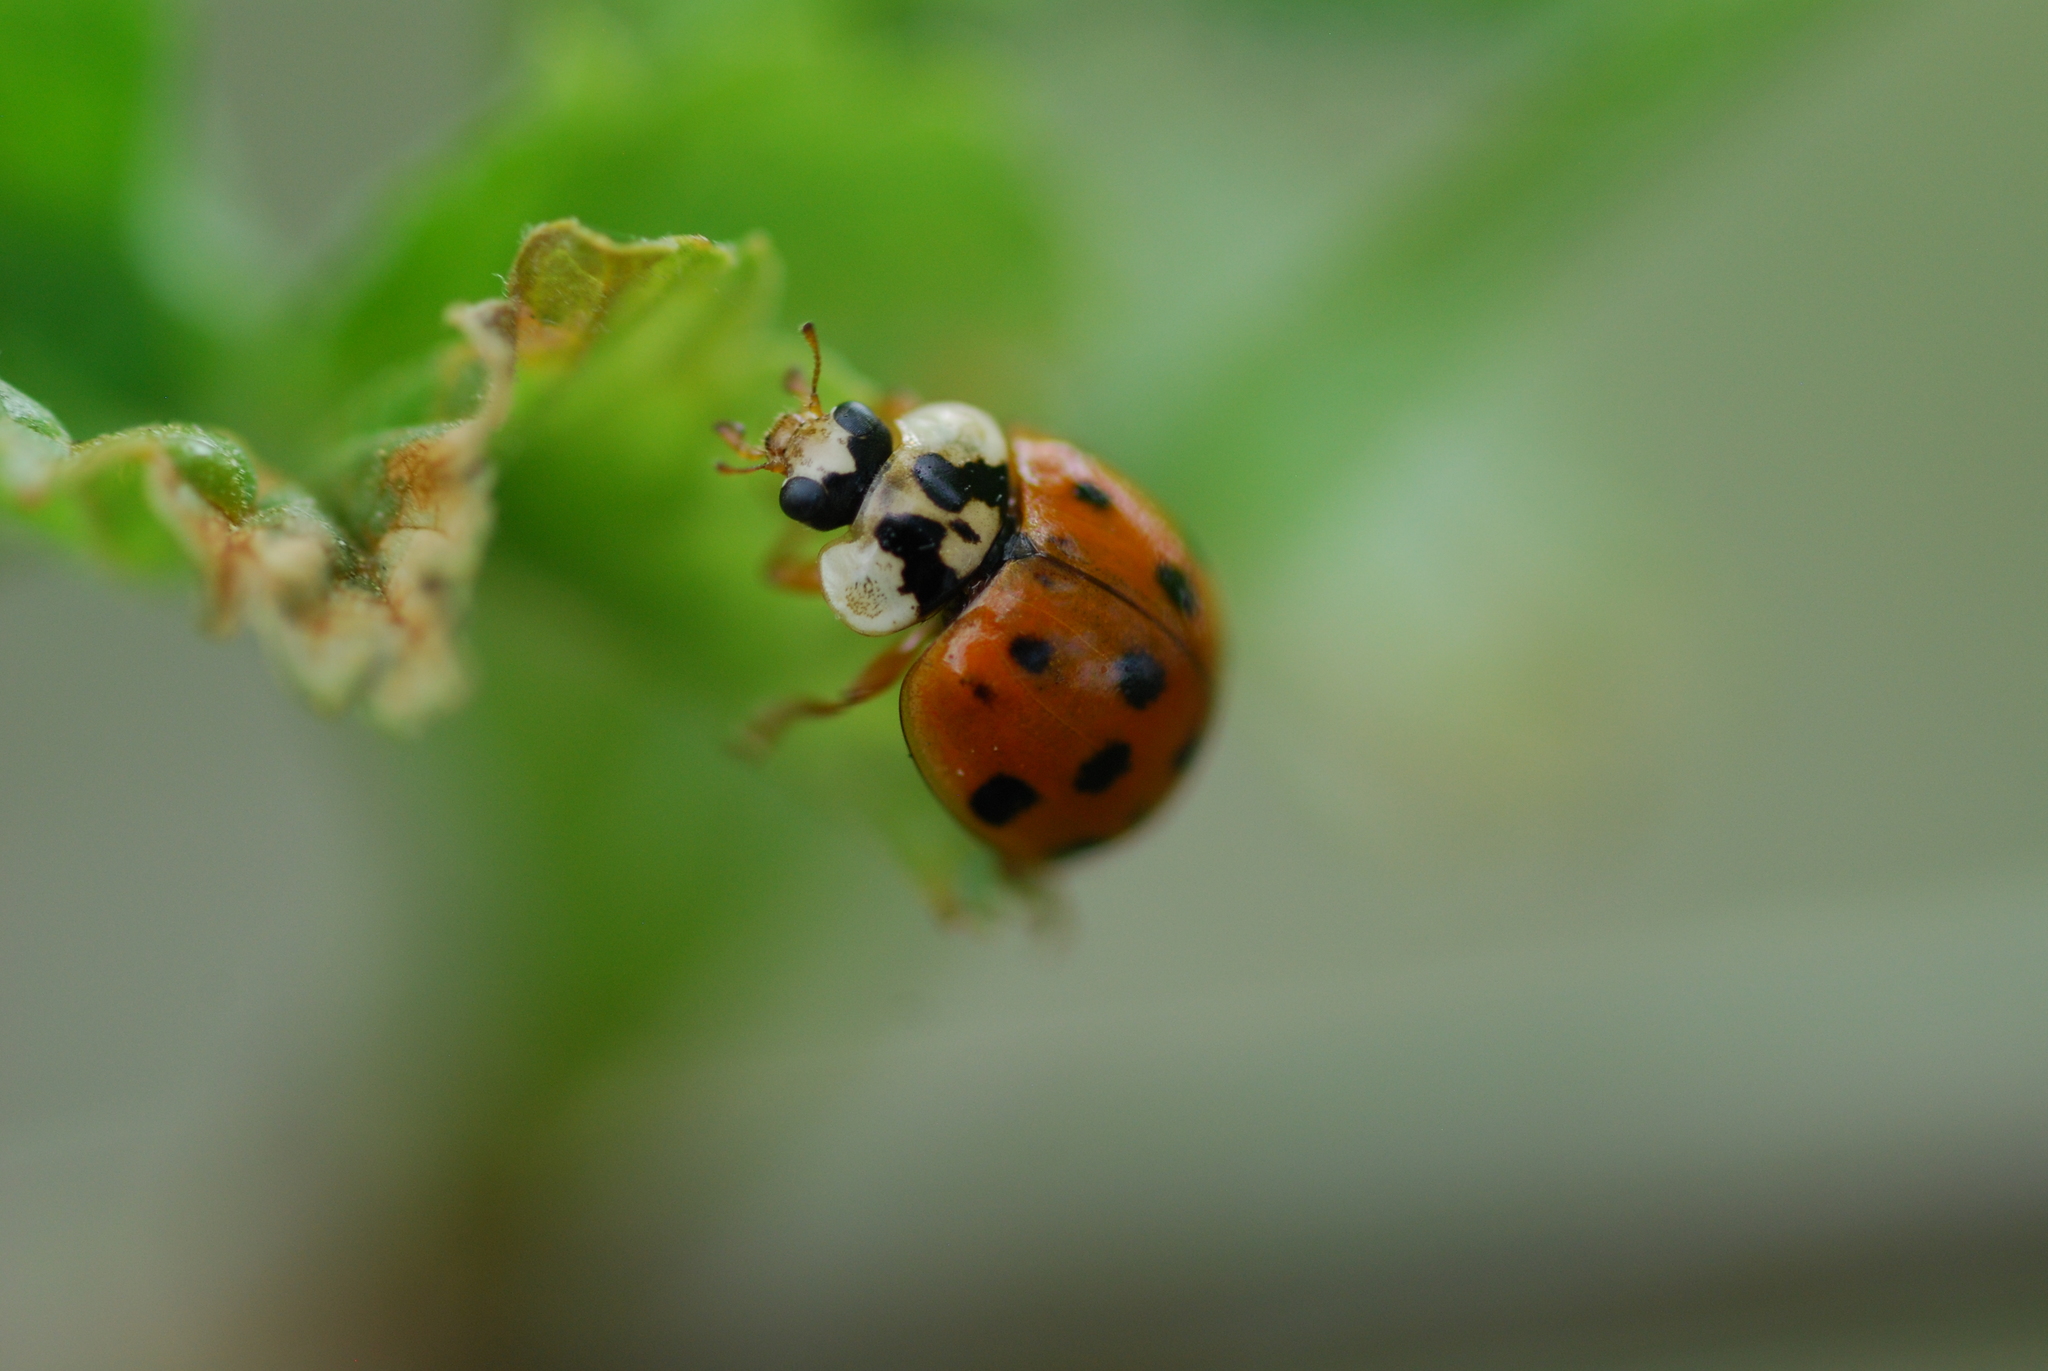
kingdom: Animalia
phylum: Arthropoda
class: Insecta
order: Coleoptera
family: Coccinellidae
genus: Harmonia
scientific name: Harmonia axyridis
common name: Harlequin ladybird
